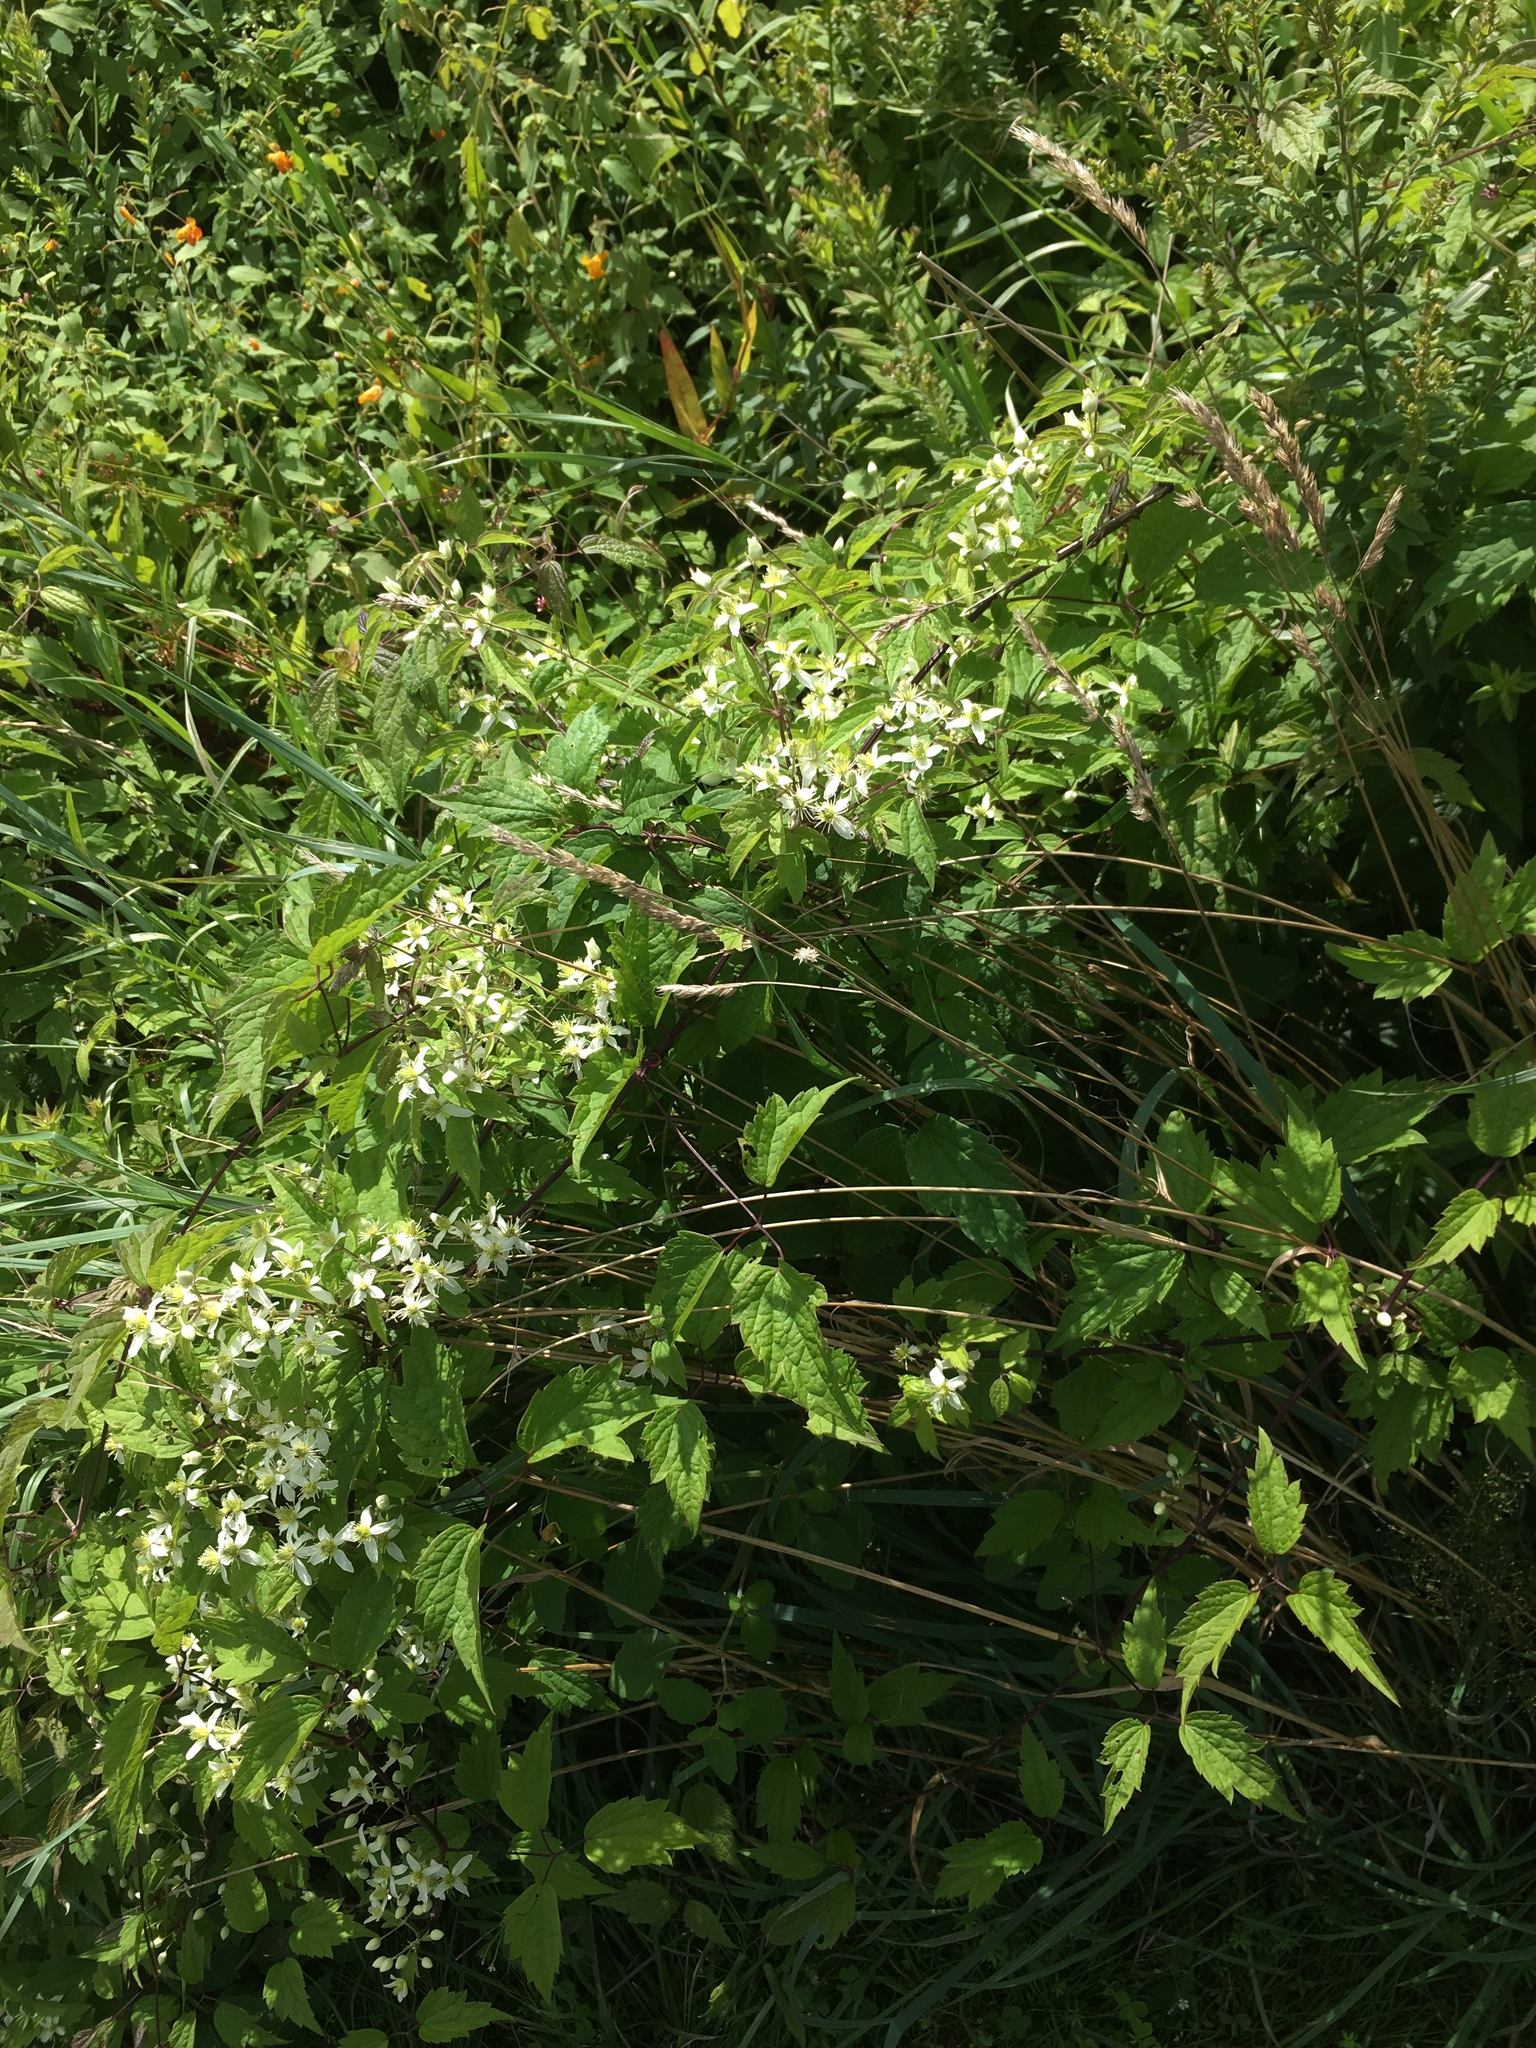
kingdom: Plantae
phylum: Tracheophyta
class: Magnoliopsida
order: Ranunculales
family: Ranunculaceae
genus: Clematis
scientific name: Clematis virginiana
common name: Virgin's-bower
